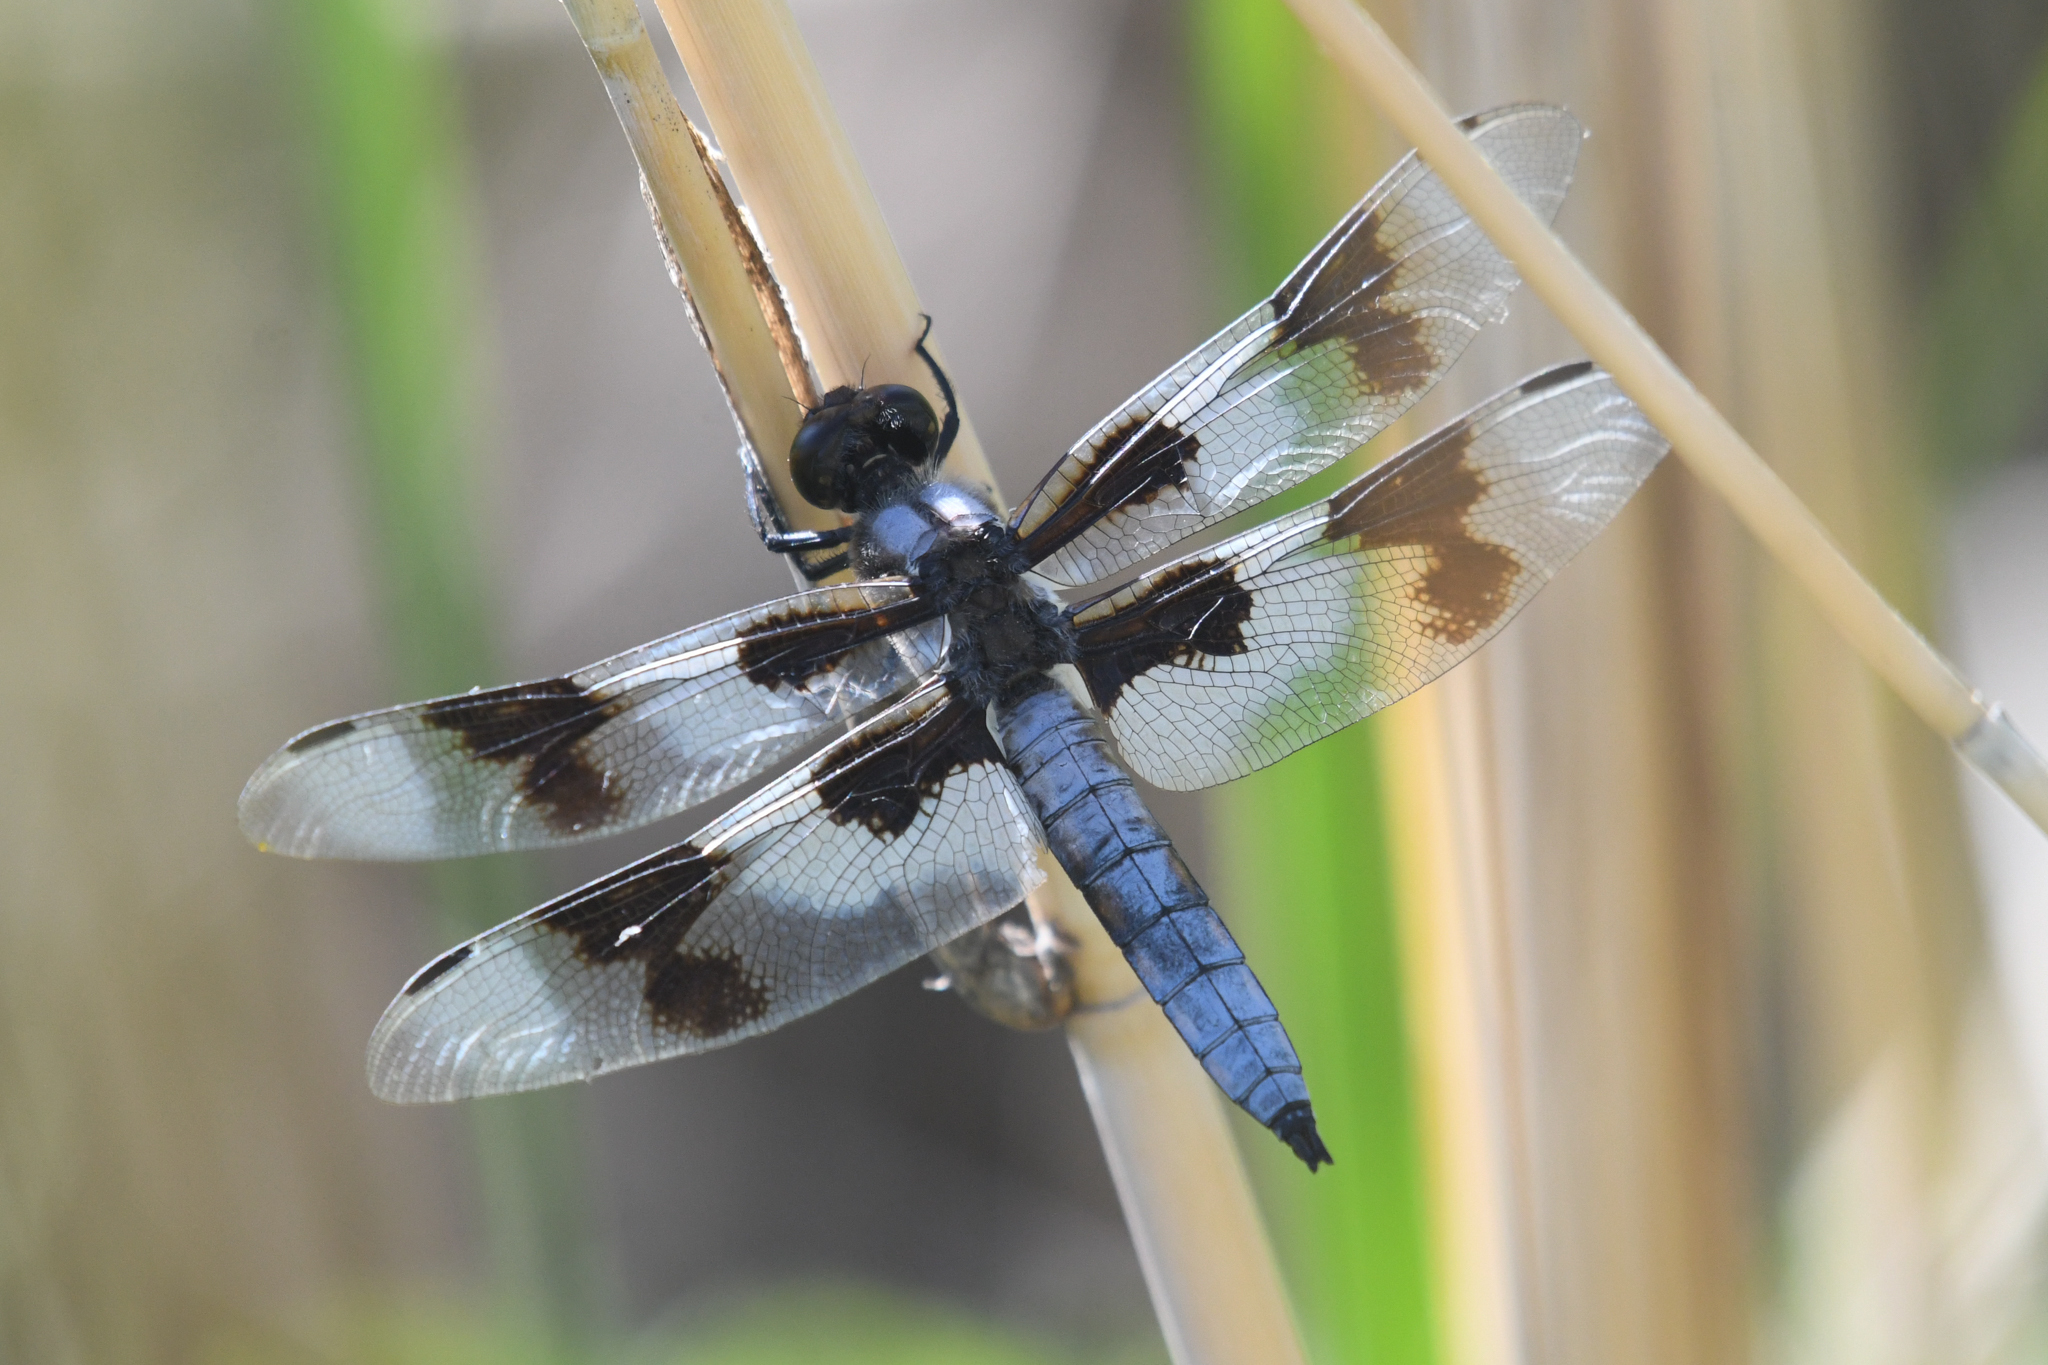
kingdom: Animalia
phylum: Arthropoda
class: Insecta
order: Odonata
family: Libellulidae
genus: Libellula
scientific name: Libellula forensis
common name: Eight-spotted skimmer
